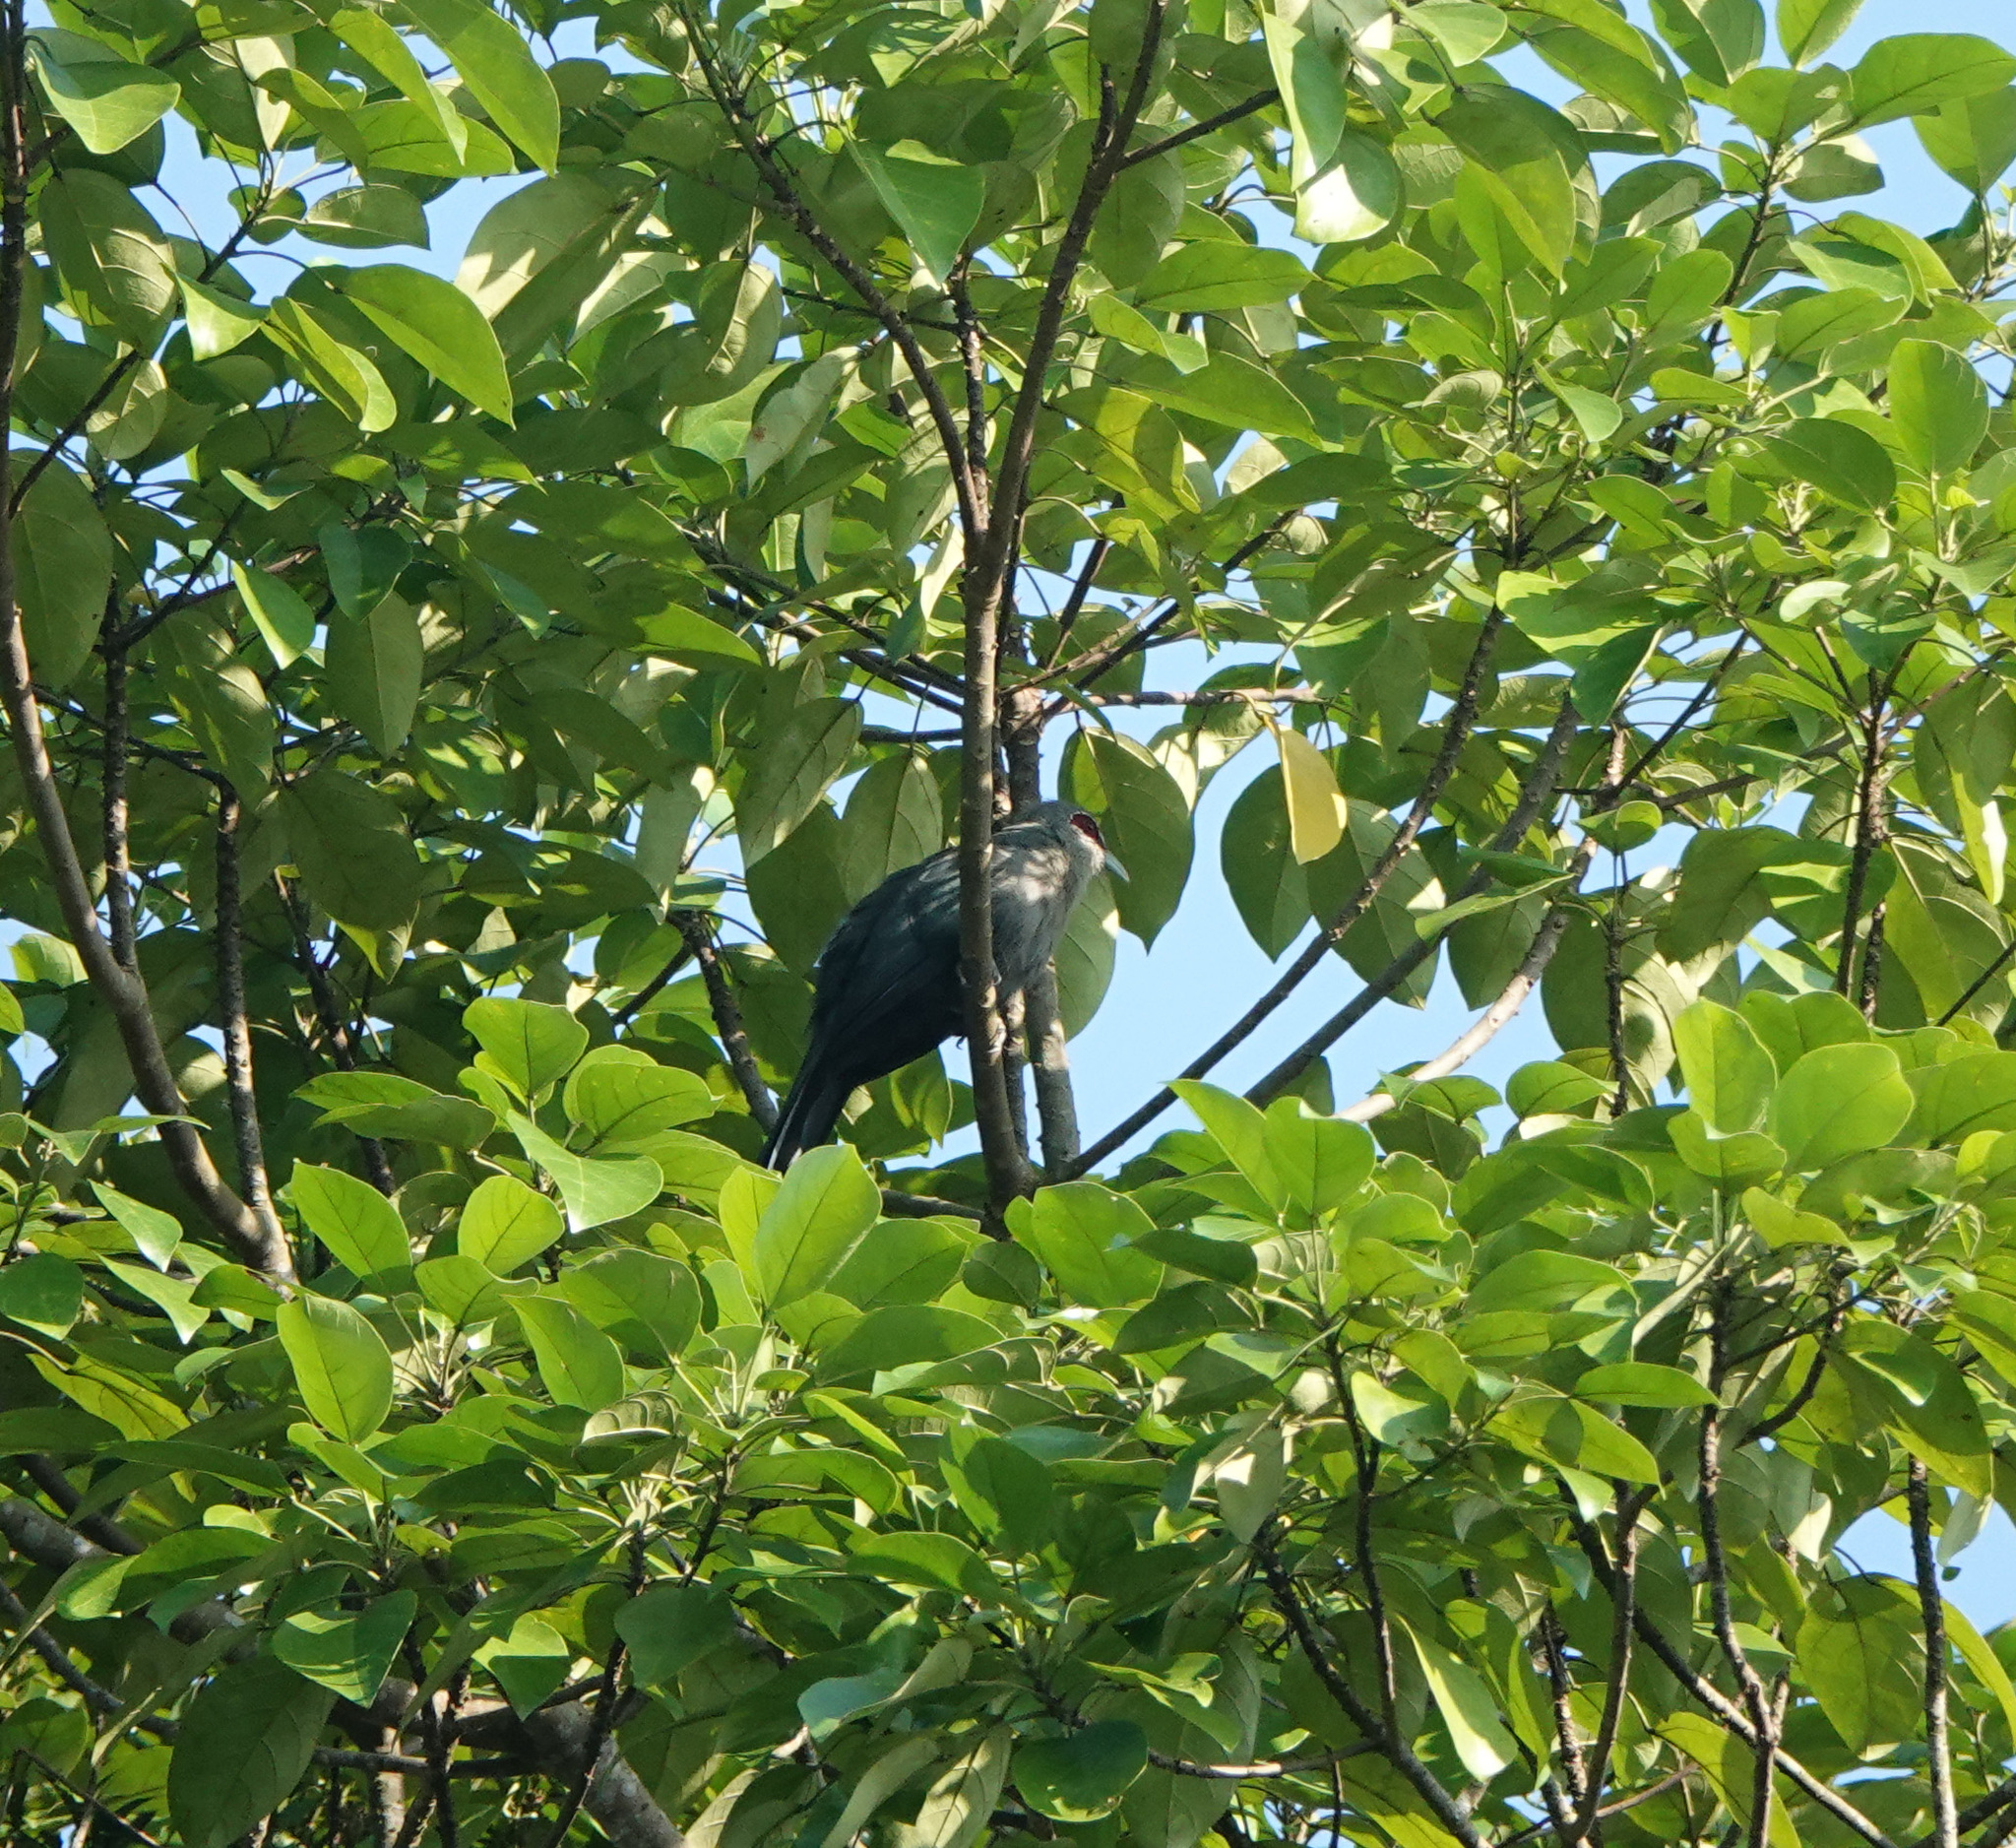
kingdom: Animalia
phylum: Chordata
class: Aves
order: Cuculiformes
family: Cuculidae
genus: Rhopodytes
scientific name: Rhopodytes tristis
